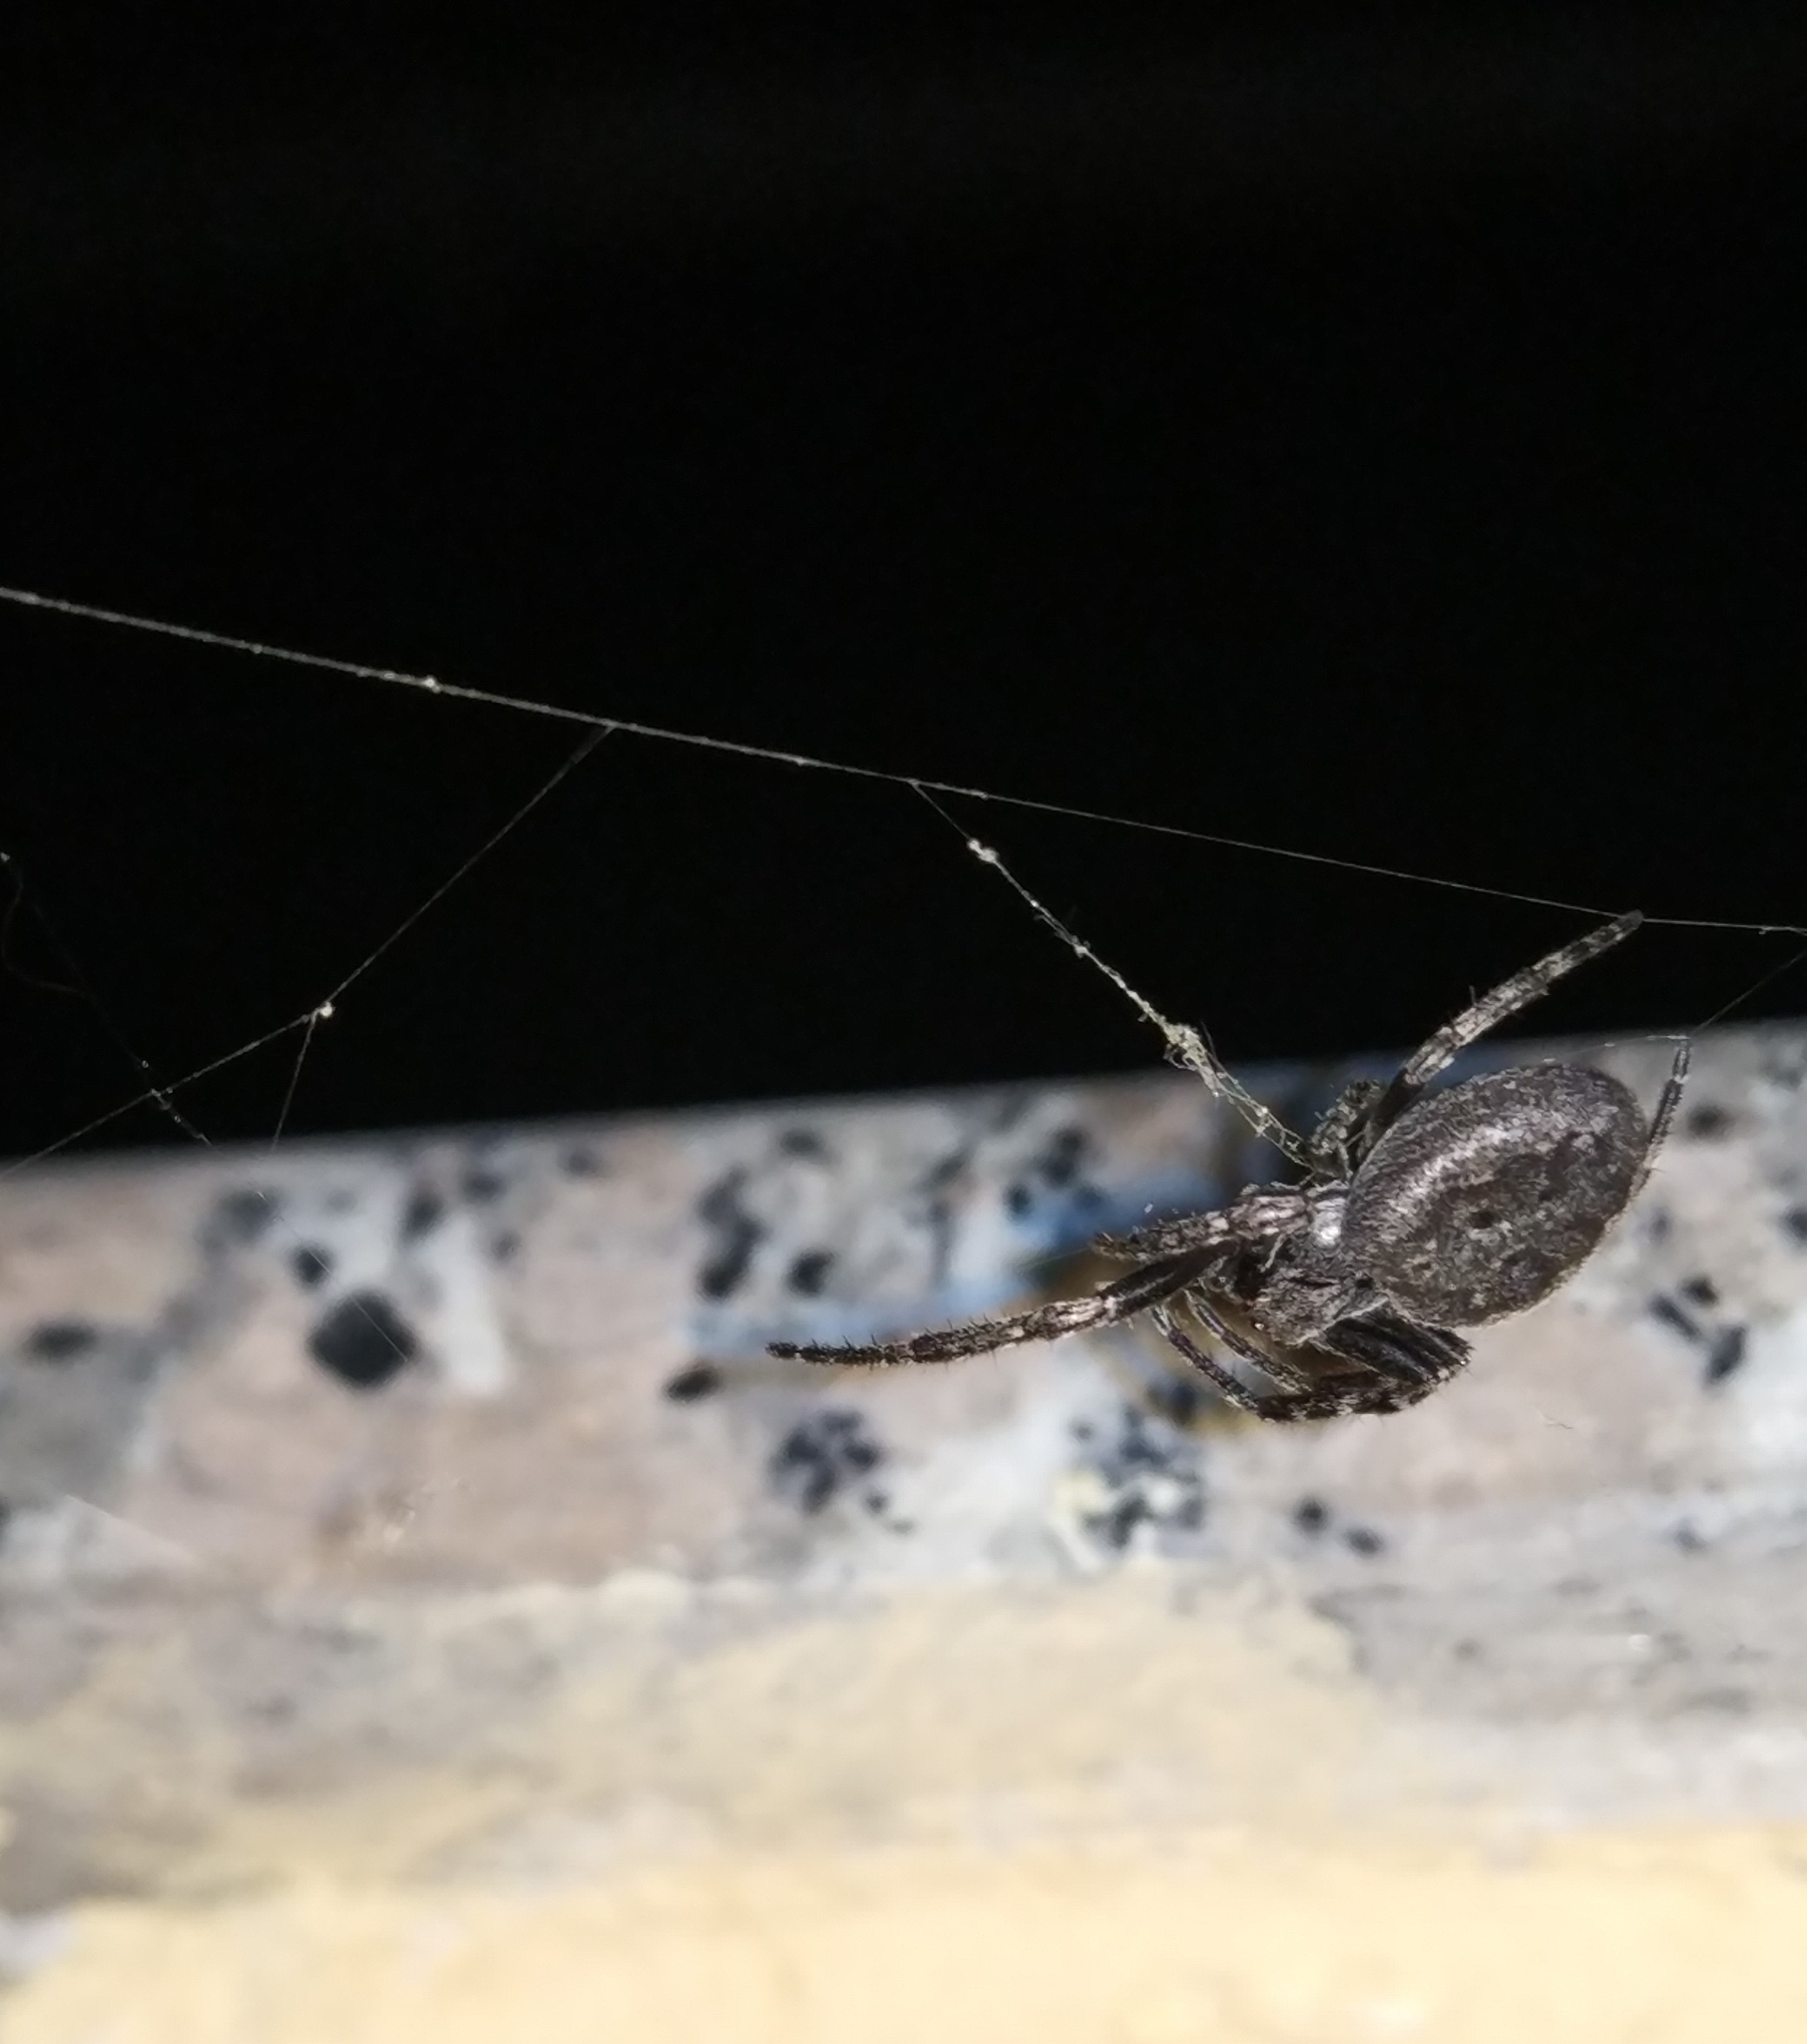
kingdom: Animalia
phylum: Arthropoda
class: Arachnida
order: Araneae
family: Araneidae
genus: Nuctenea
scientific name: Nuctenea umbratica
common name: Toad spider
